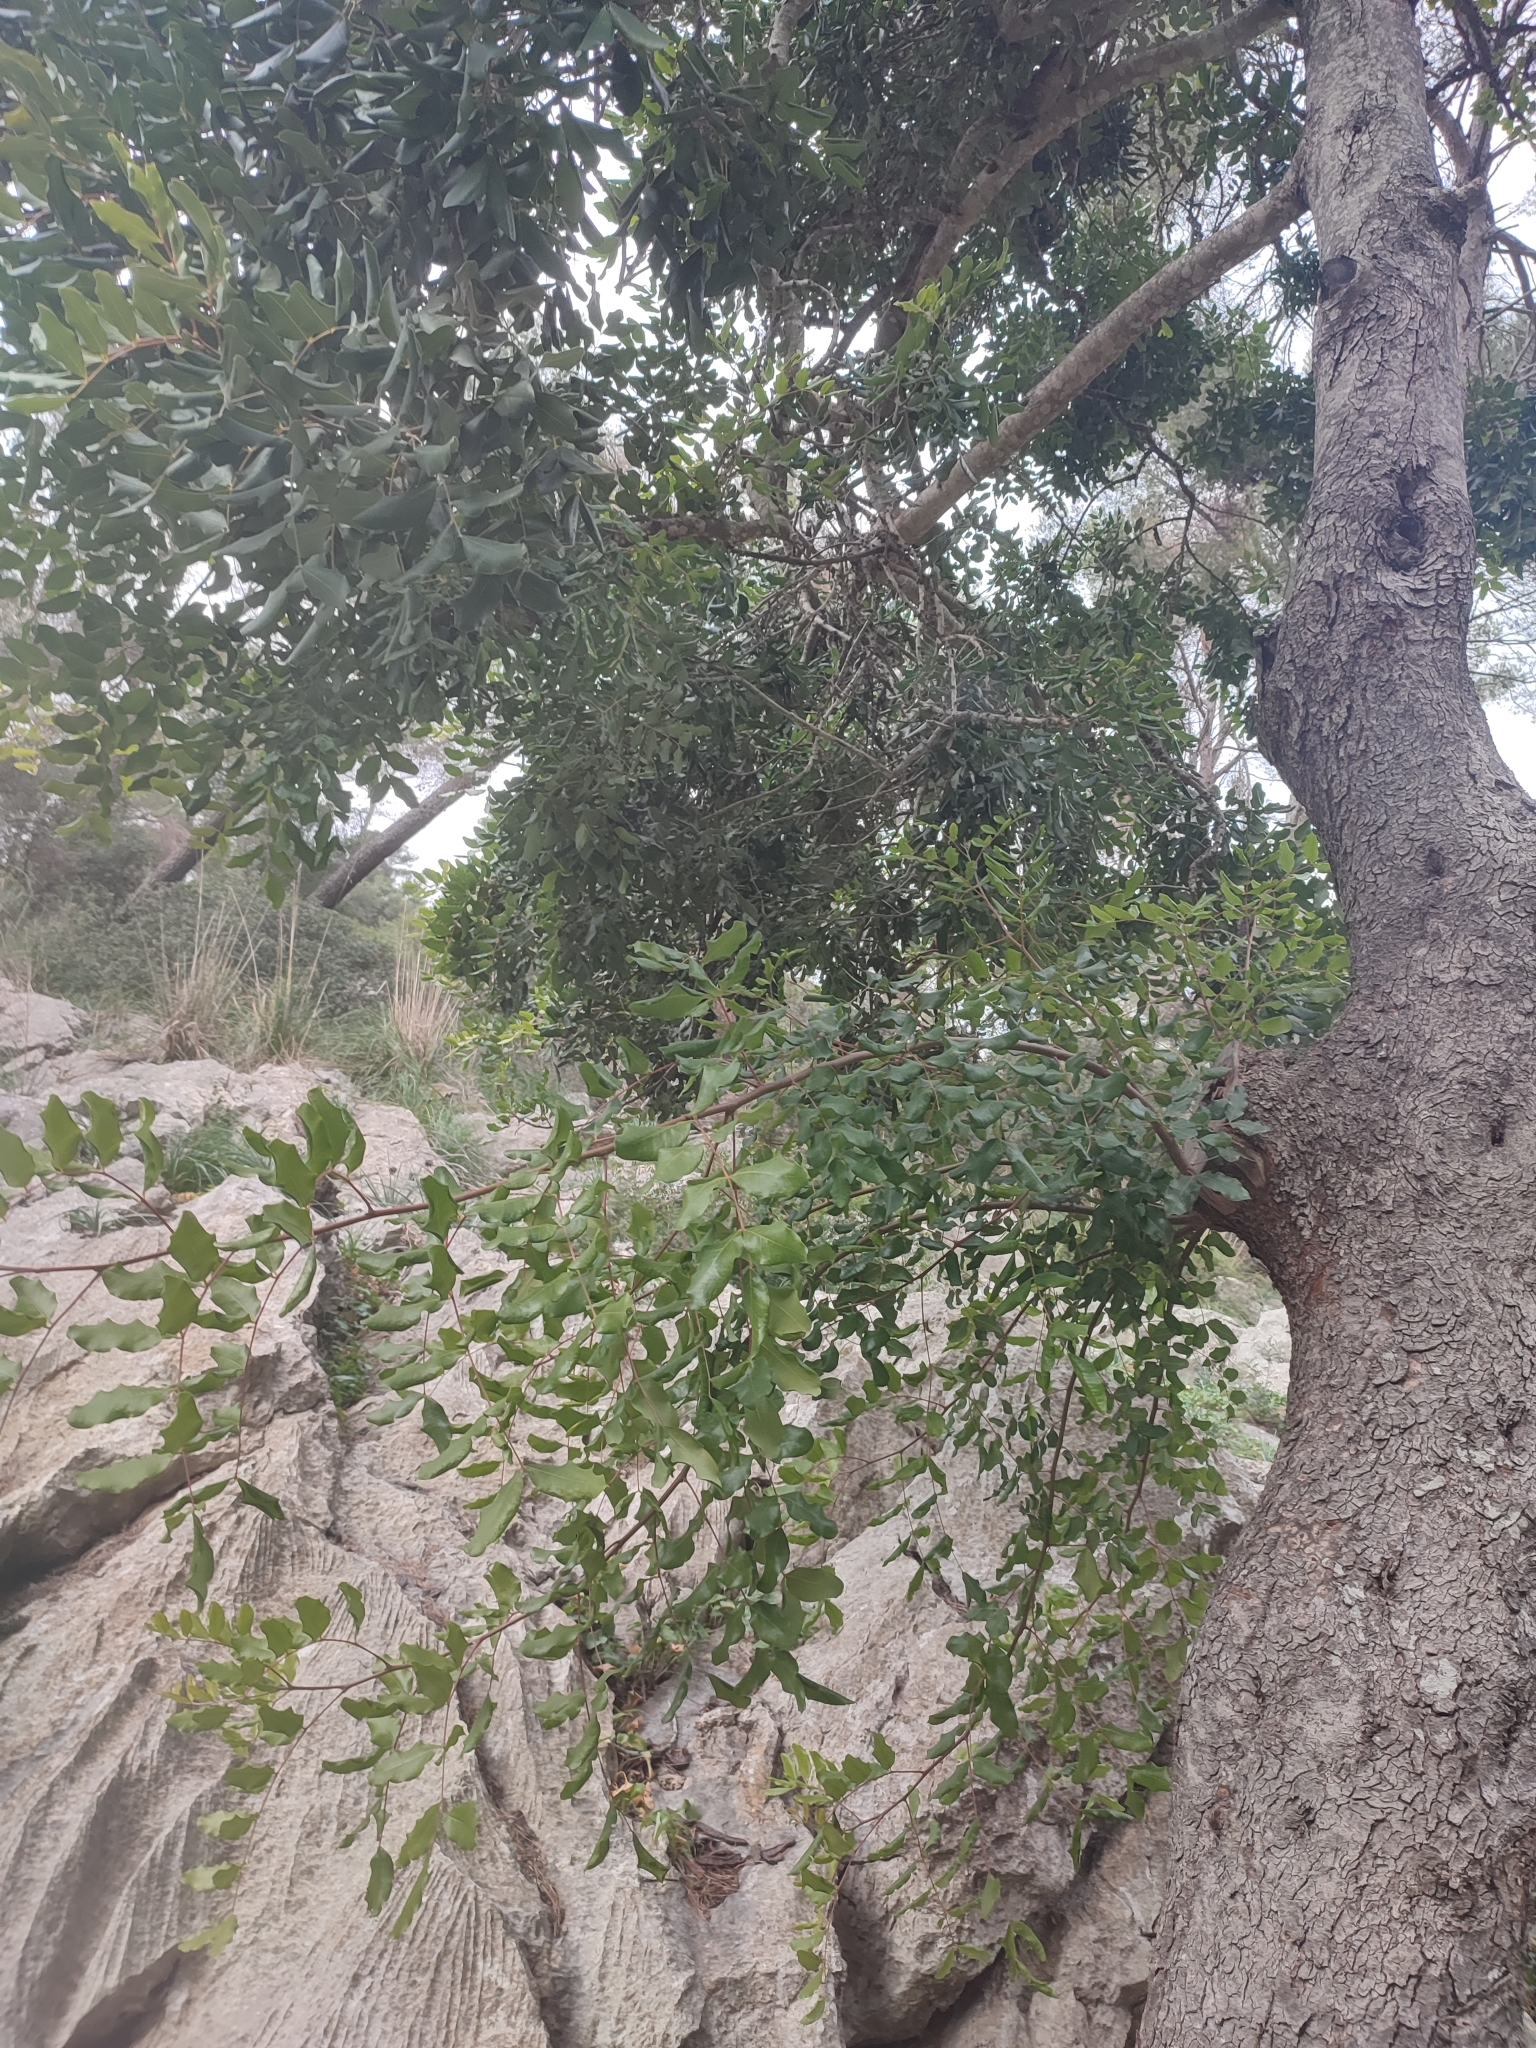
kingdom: Plantae
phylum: Tracheophyta
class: Magnoliopsida
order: Fabales
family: Fabaceae
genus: Ceratonia
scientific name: Ceratonia siliqua
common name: Carob
